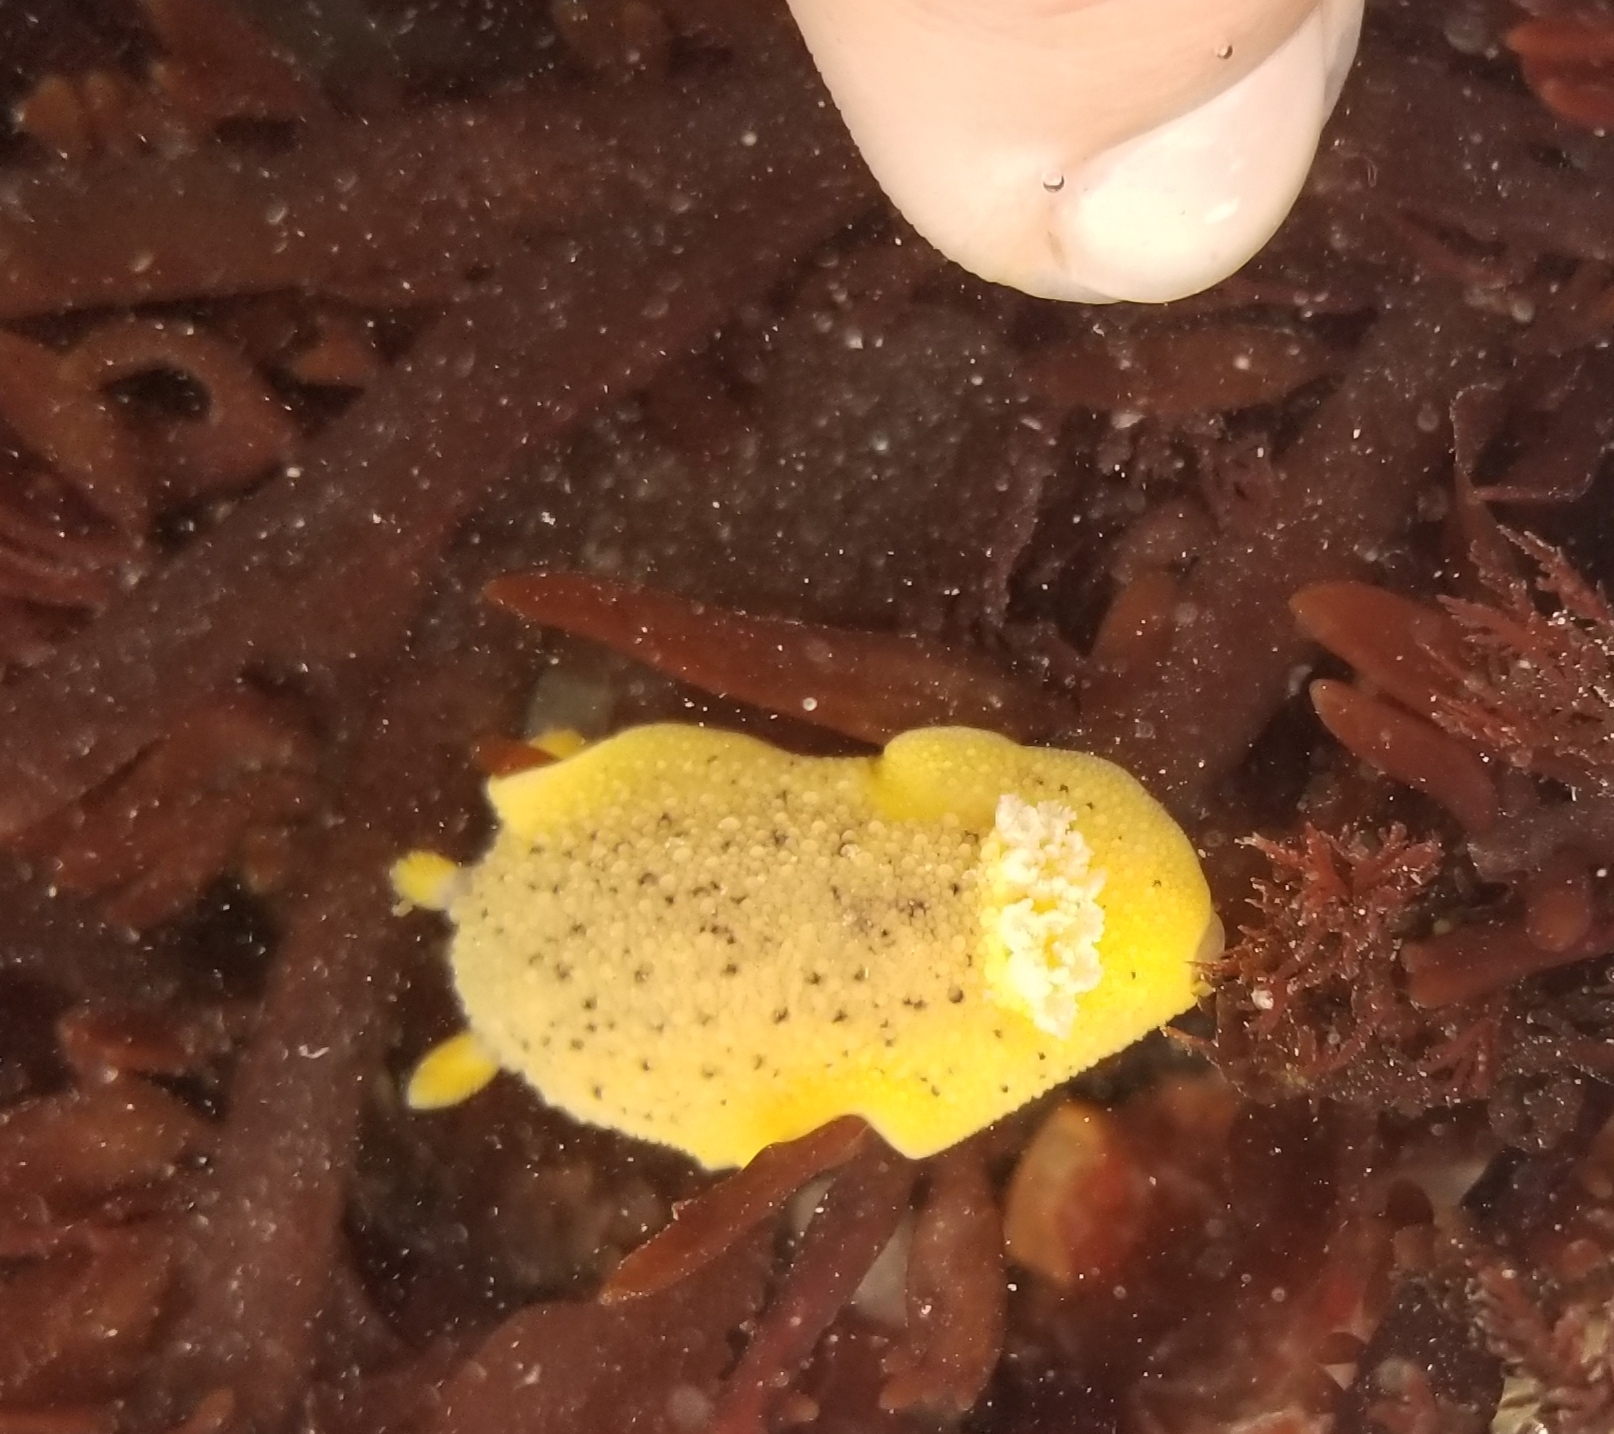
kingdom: Animalia
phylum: Mollusca
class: Gastropoda
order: Nudibranchia
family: Discodorididae
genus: Geitodoris
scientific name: Geitodoris heathi
